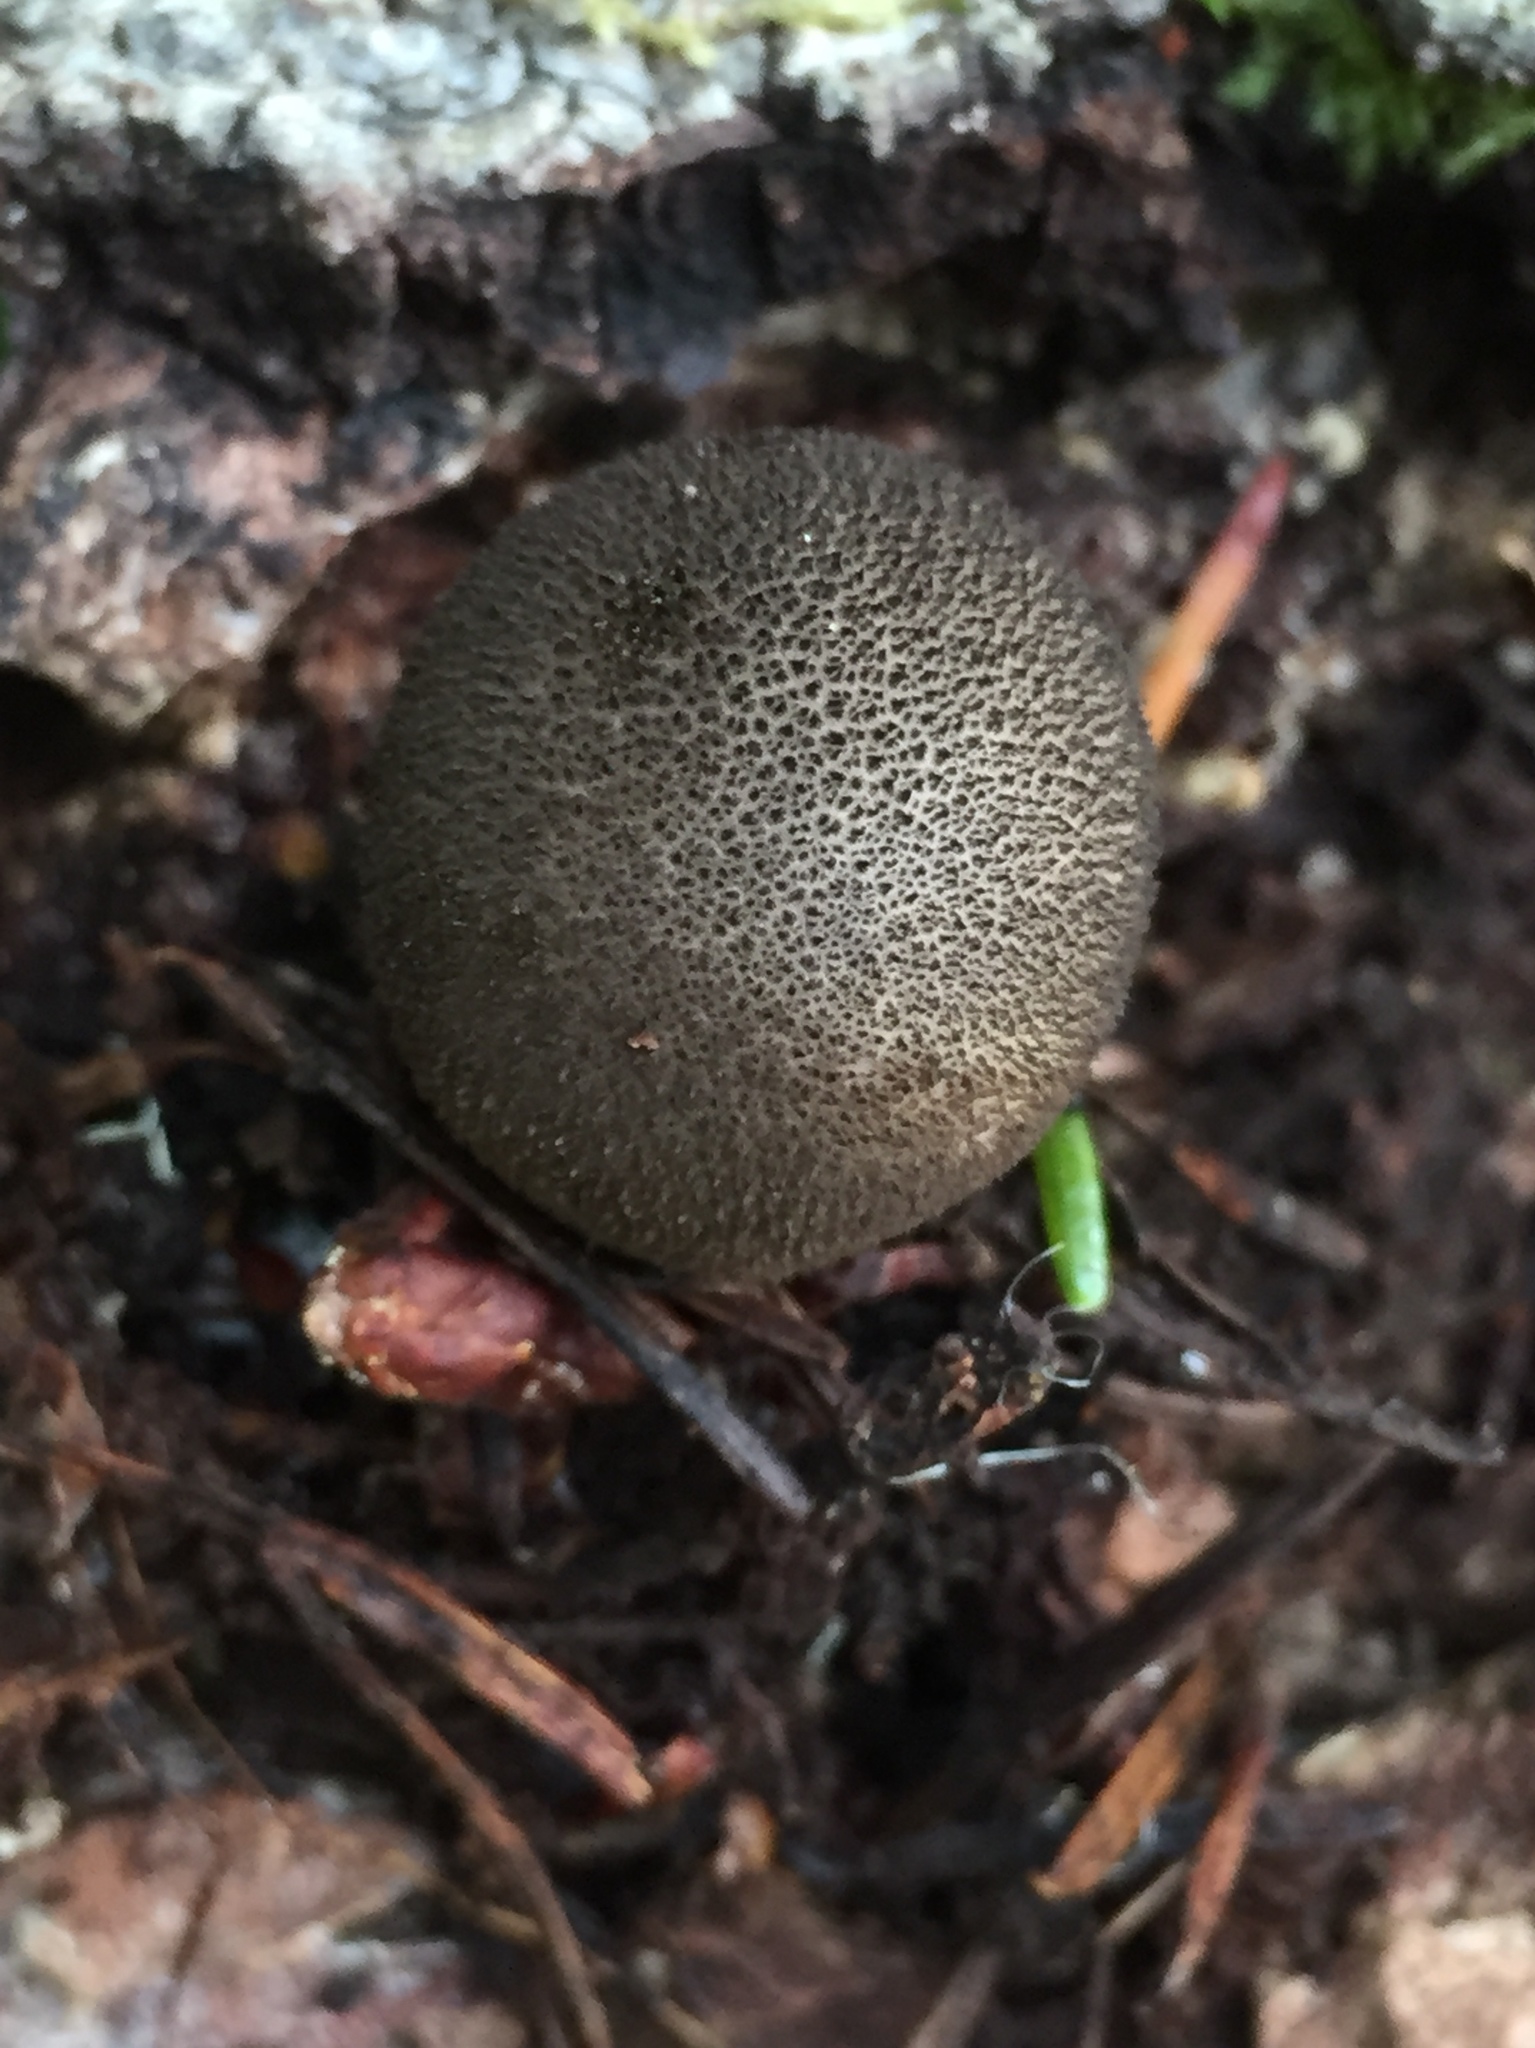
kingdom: Fungi
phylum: Basidiomycota
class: Agaricomycetes
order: Agaricales
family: Lycoperdaceae
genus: Lycoperdon
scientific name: Lycoperdon umbrinum
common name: Umber-brown puffball
